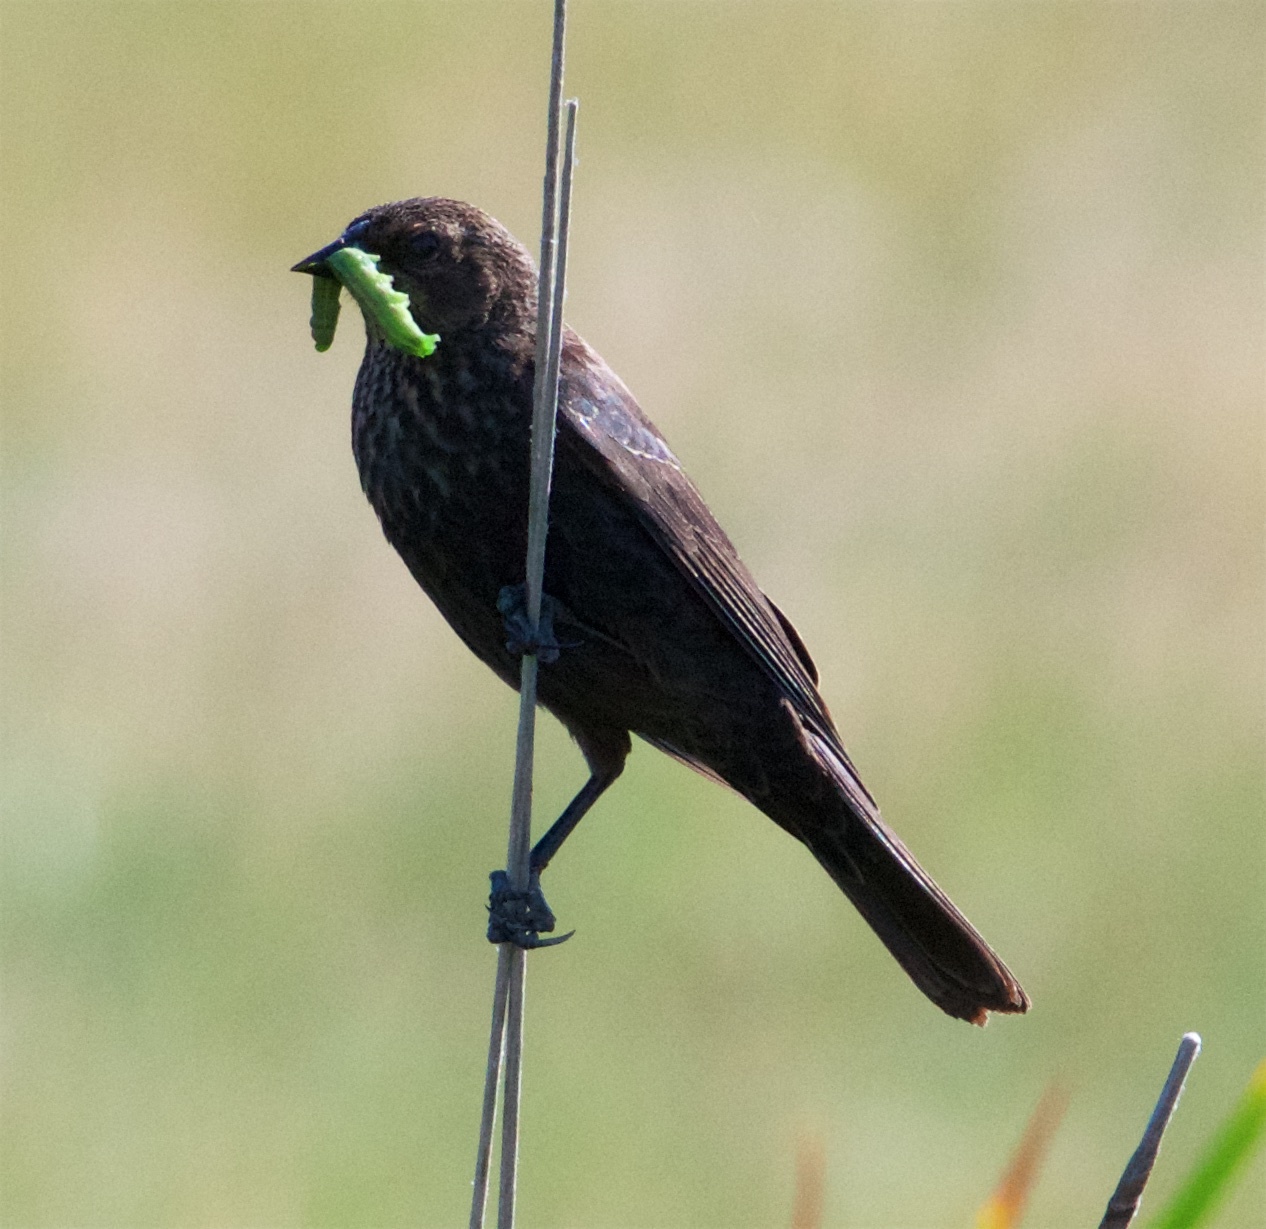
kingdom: Animalia
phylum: Chordata
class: Aves
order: Passeriformes
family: Icteridae
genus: Agelaius
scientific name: Agelaius phoeniceus
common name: Red-winged blackbird
